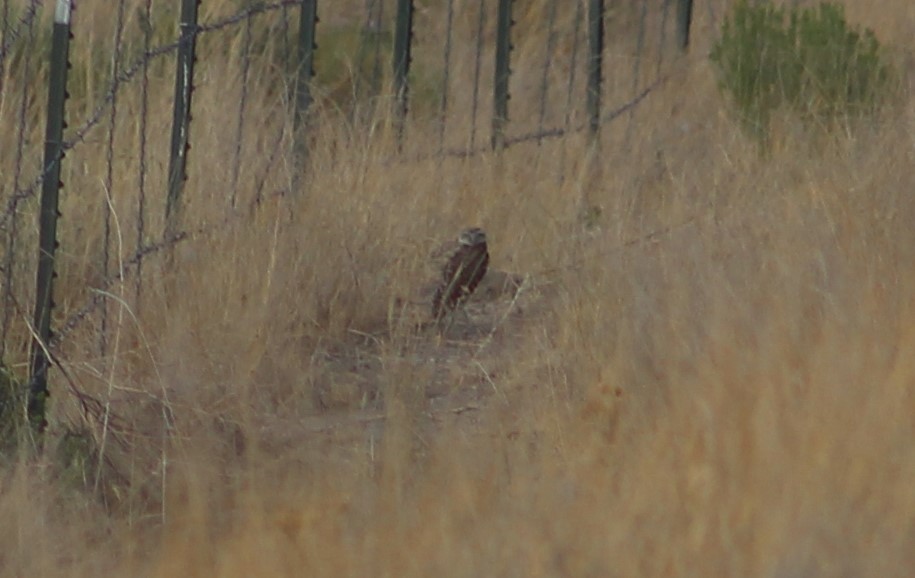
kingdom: Animalia
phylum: Chordata
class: Aves
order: Strigiformes
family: Strigidae
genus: Athene
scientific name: Athene cunicularia
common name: Burrowing owl
